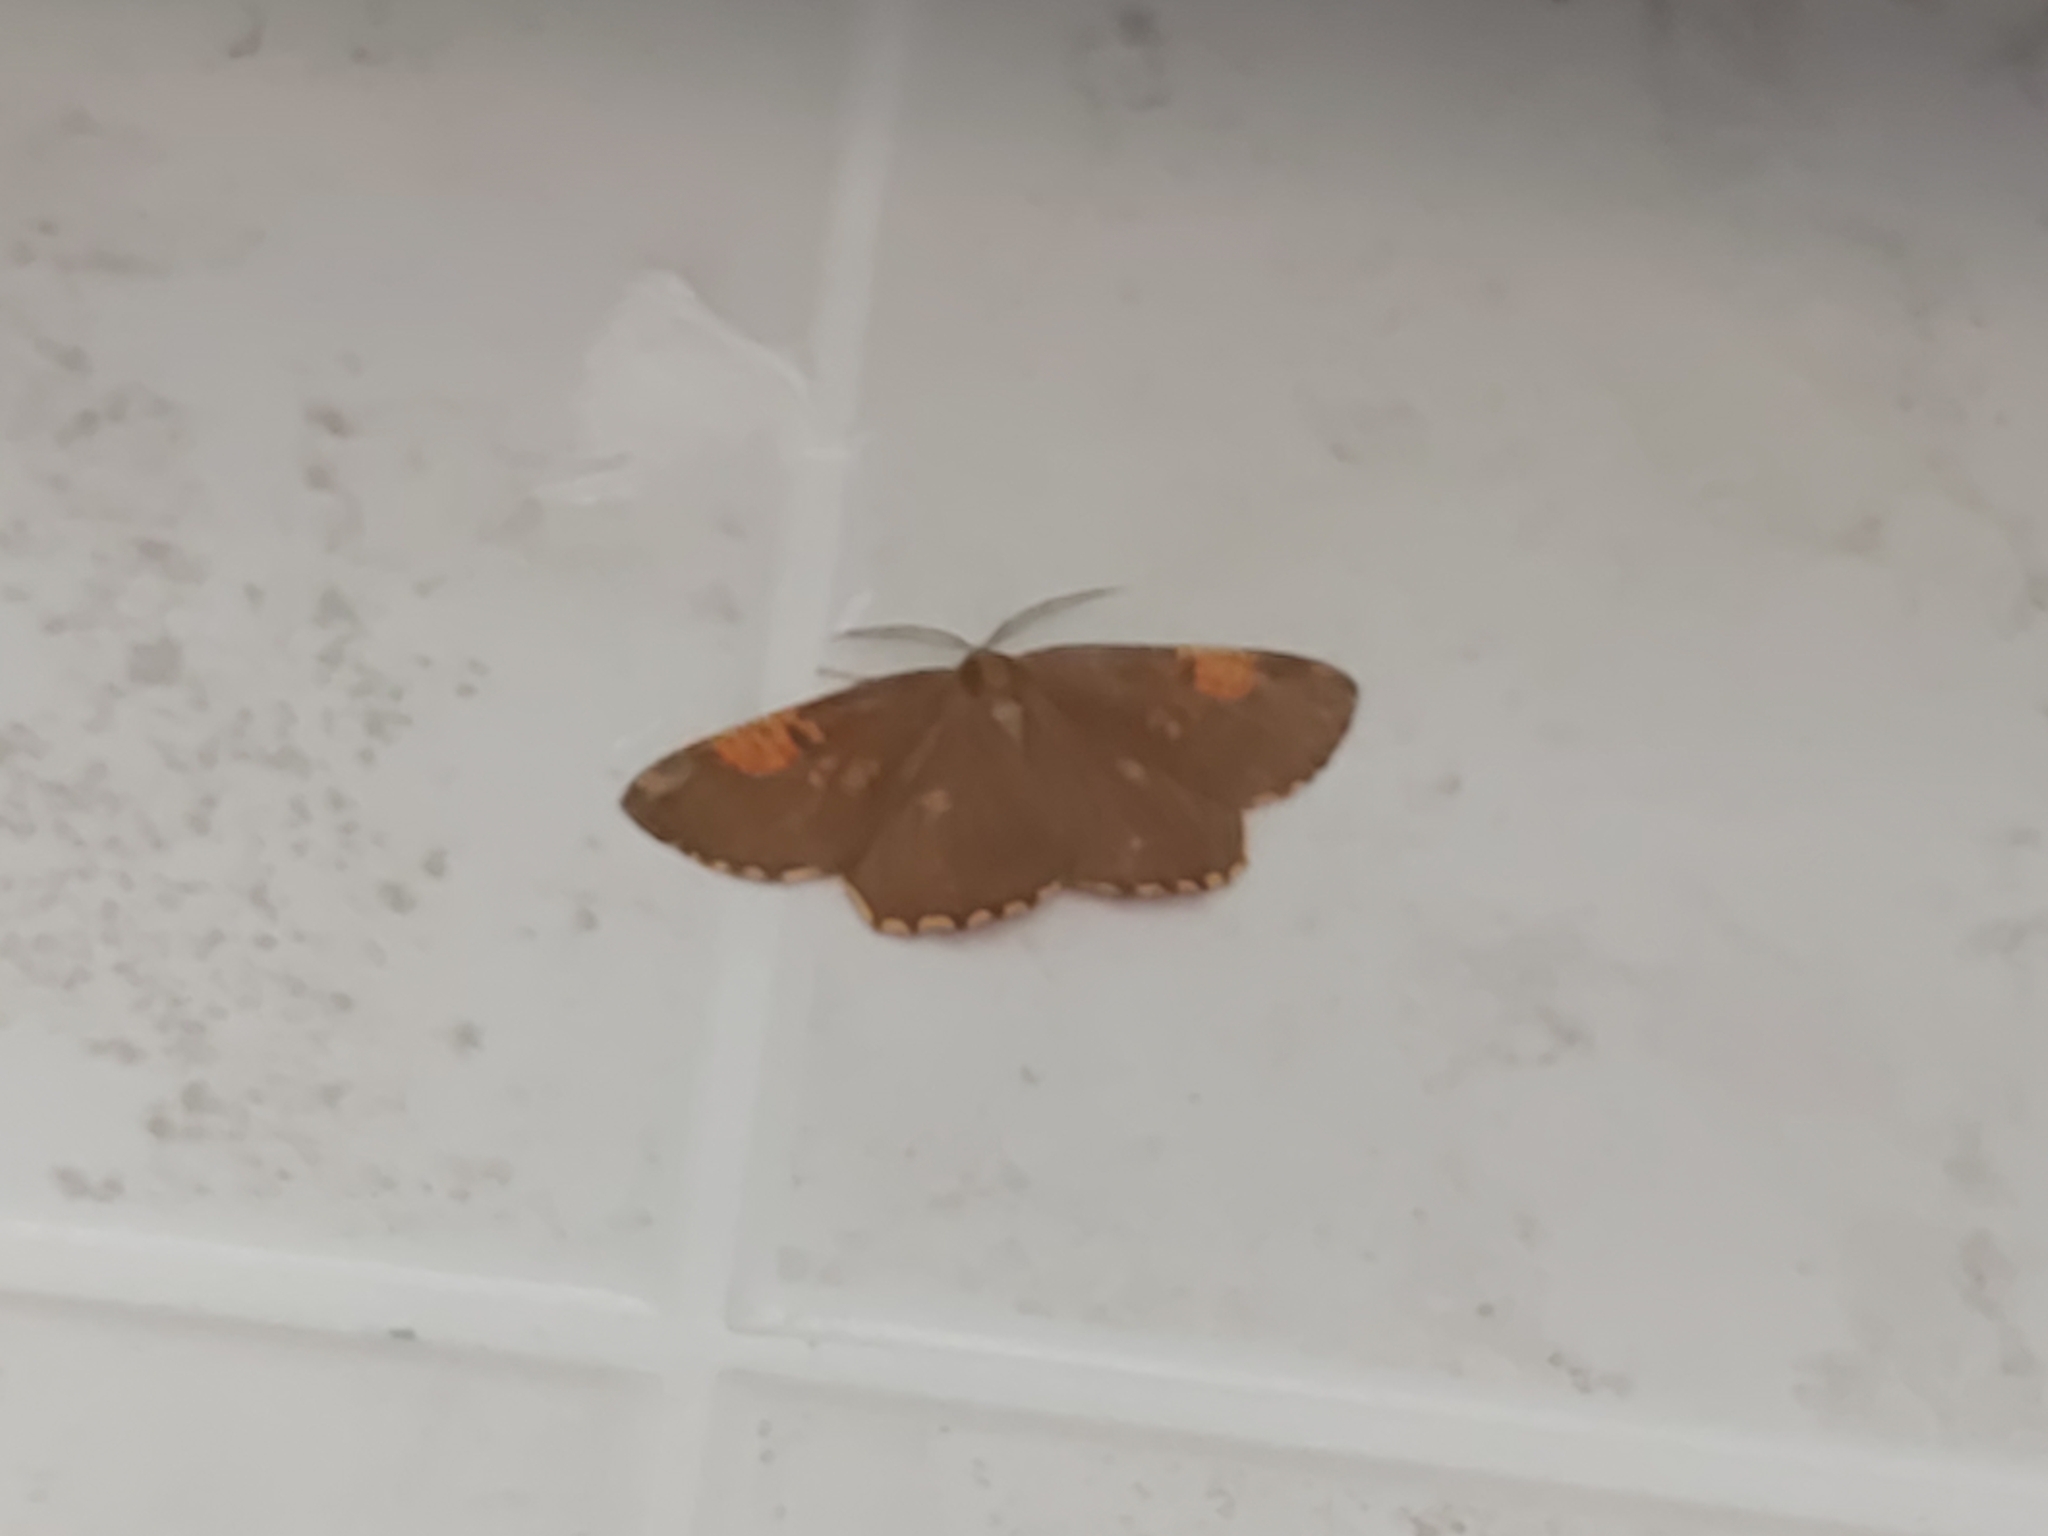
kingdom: Animalia
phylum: Arthropoda
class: Insecta
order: Lepidoptera
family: Geometridae
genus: Angerona
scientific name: Angerona prunaria
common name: Orange moth
